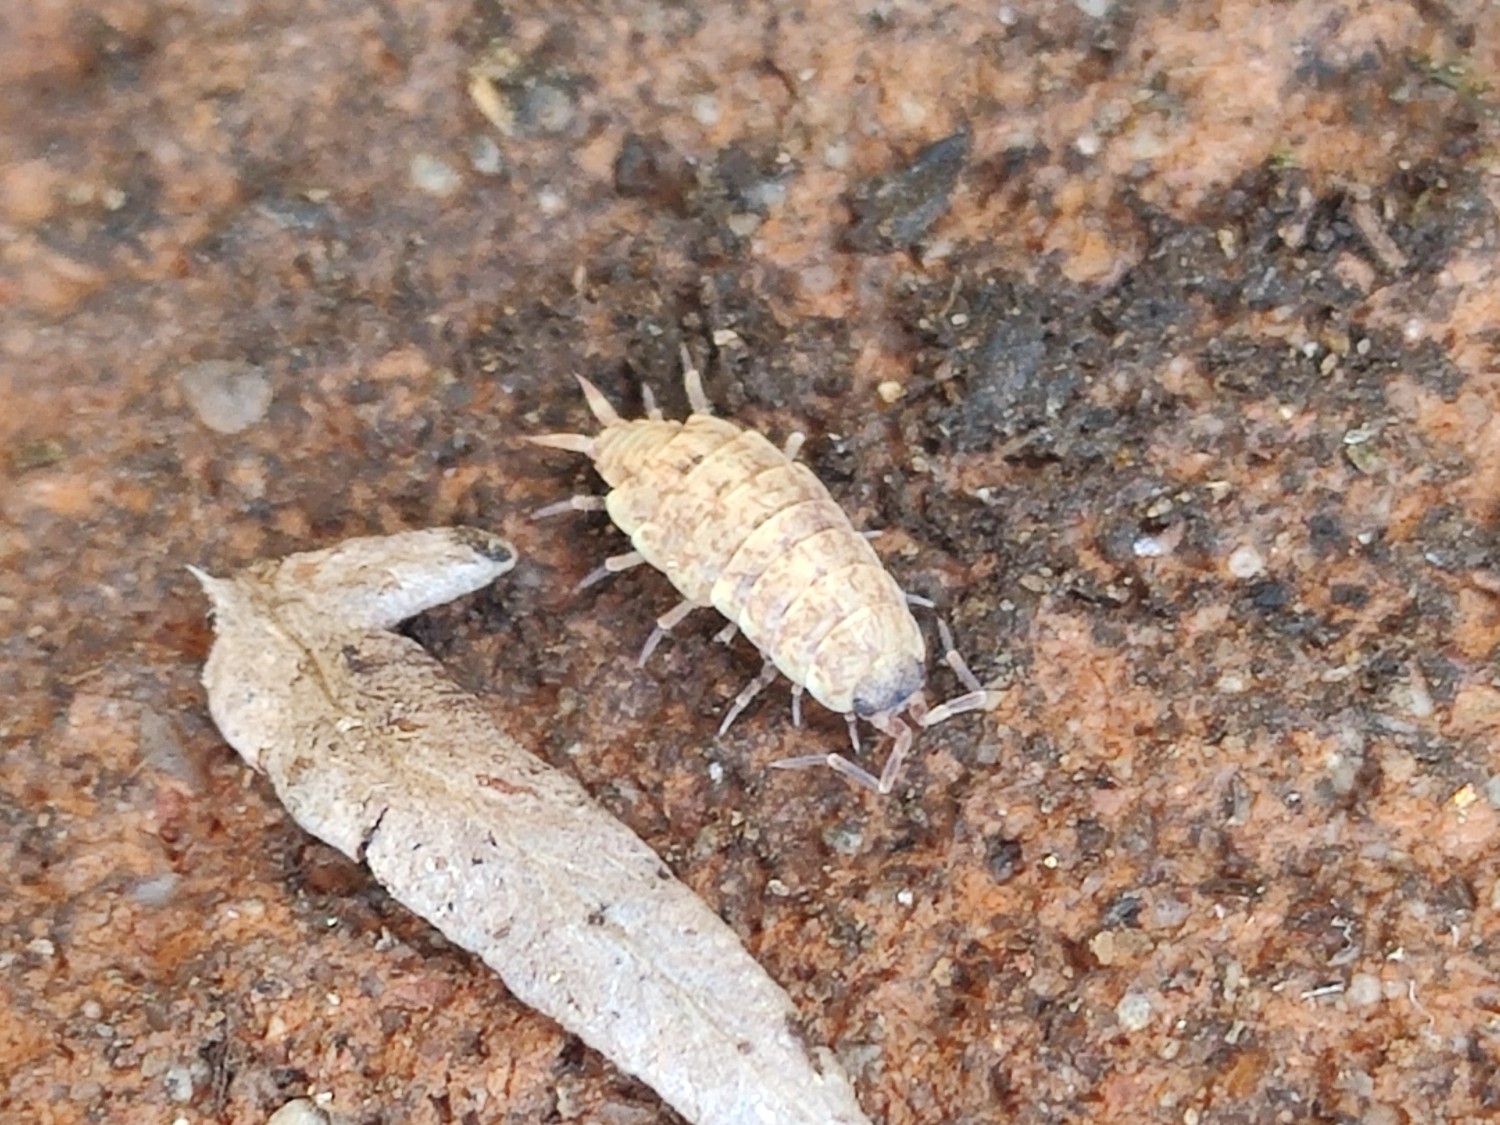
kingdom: Animalia
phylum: Arthropoda
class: Malacostraca
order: Isopoda
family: Porcellionidae
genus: Porcellionides
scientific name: Porcellionides cingendus
